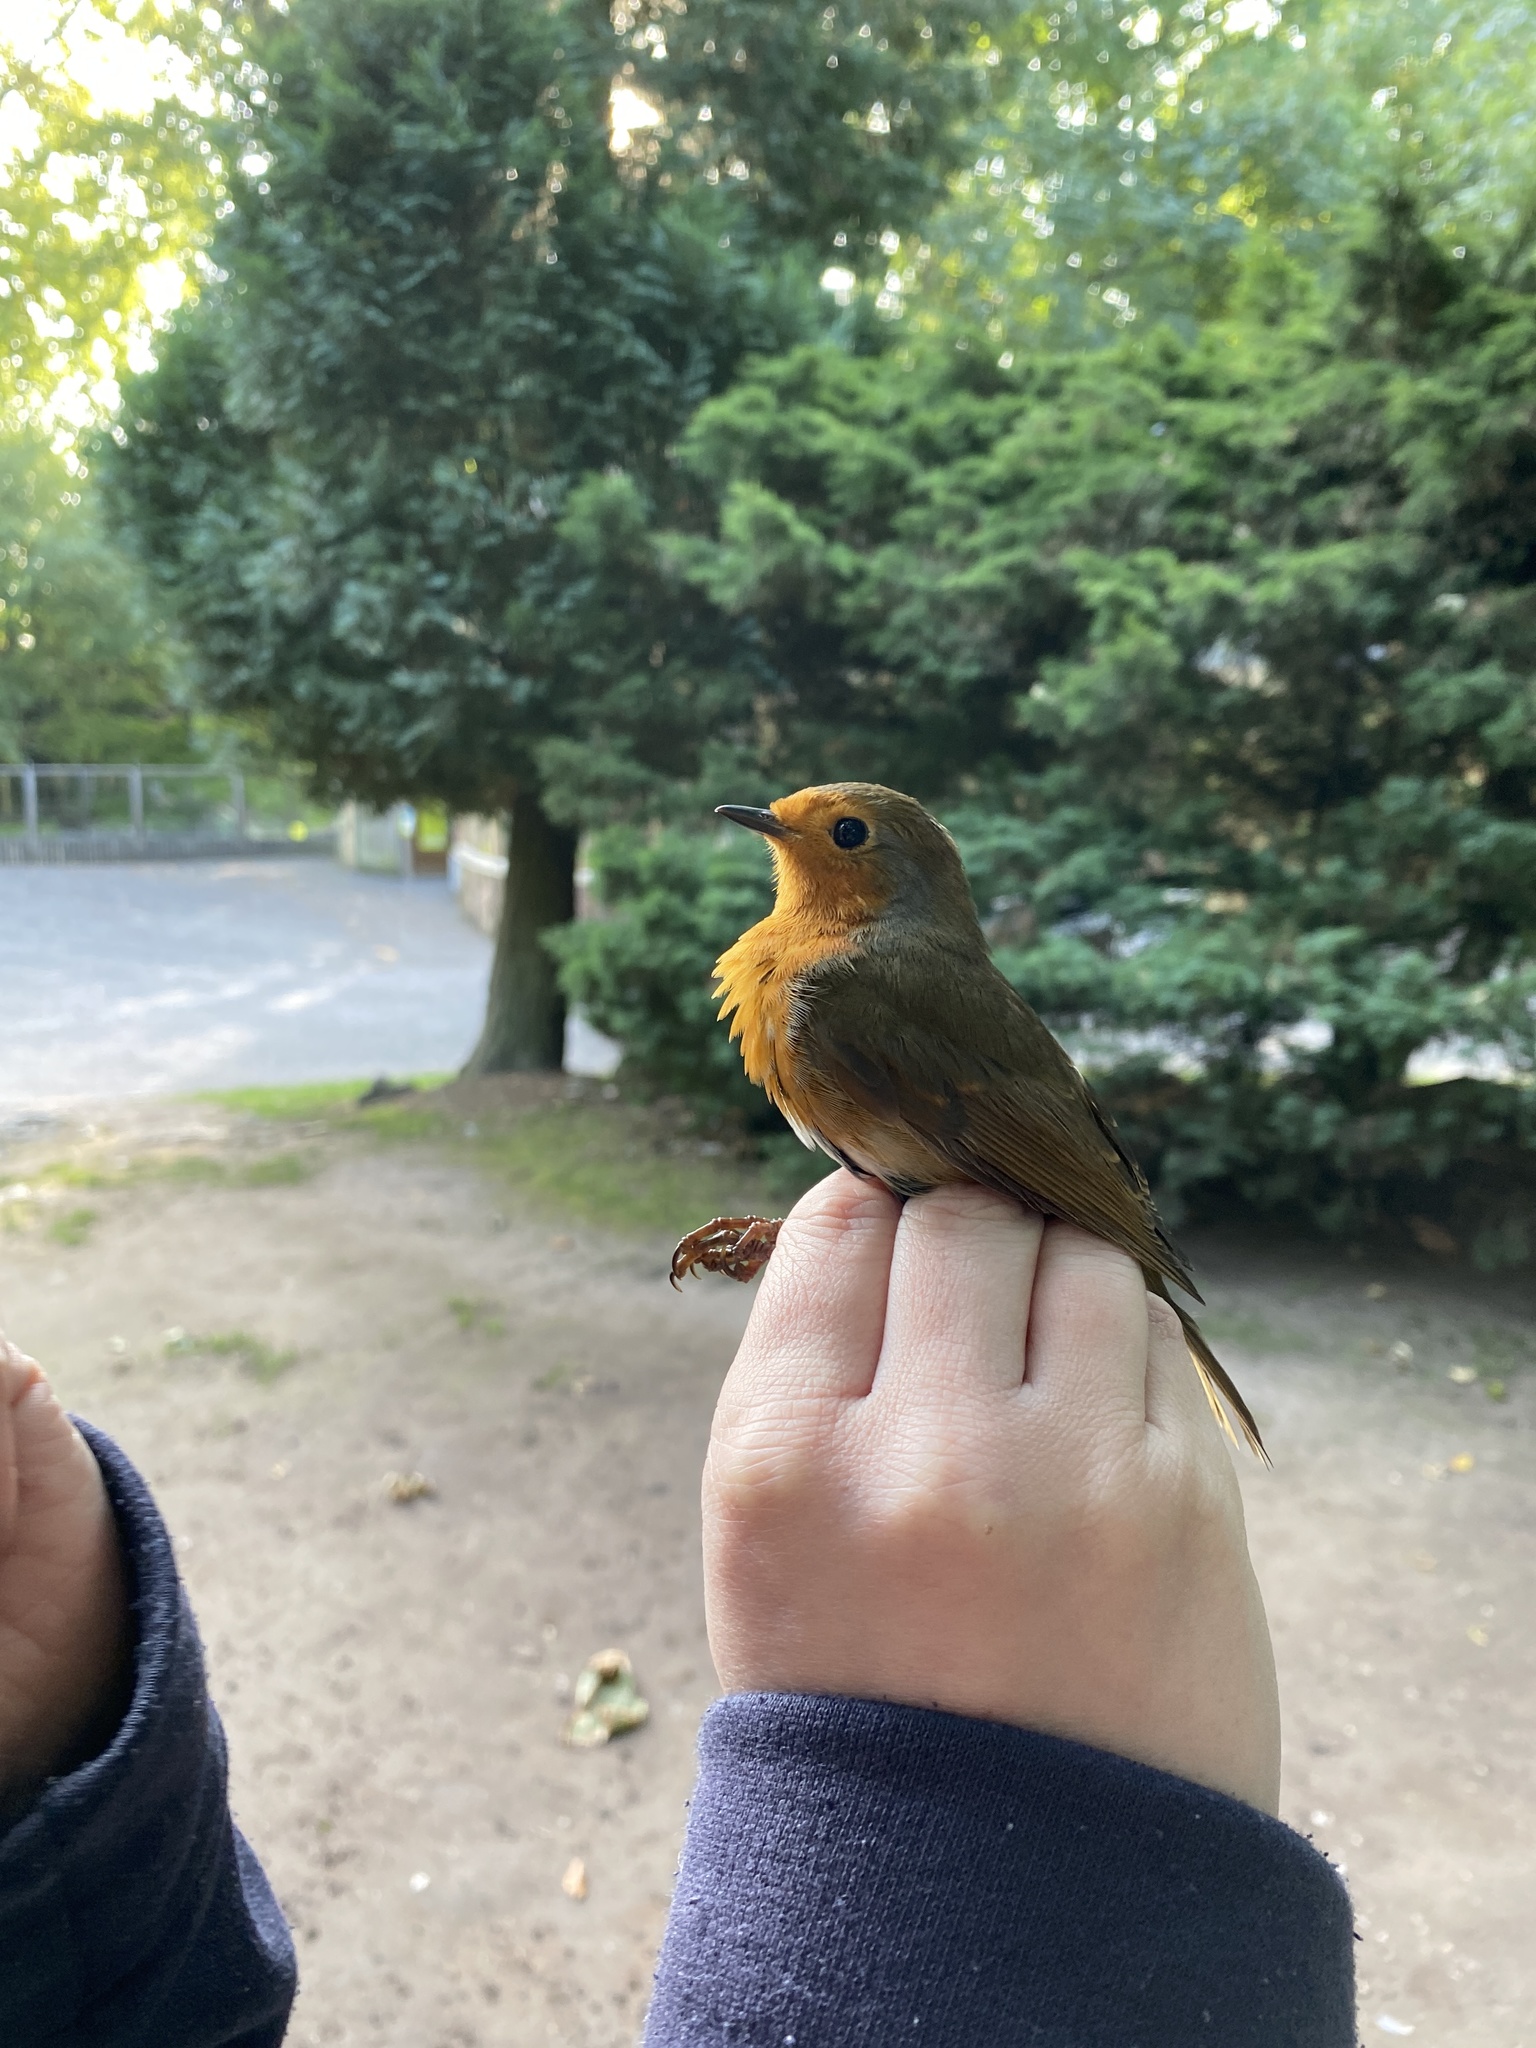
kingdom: Animalia
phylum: Chordata
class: Aves
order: Passeriformes
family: Muscicapidae
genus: Erithacus
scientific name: Erithacus rubecula
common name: European robin
